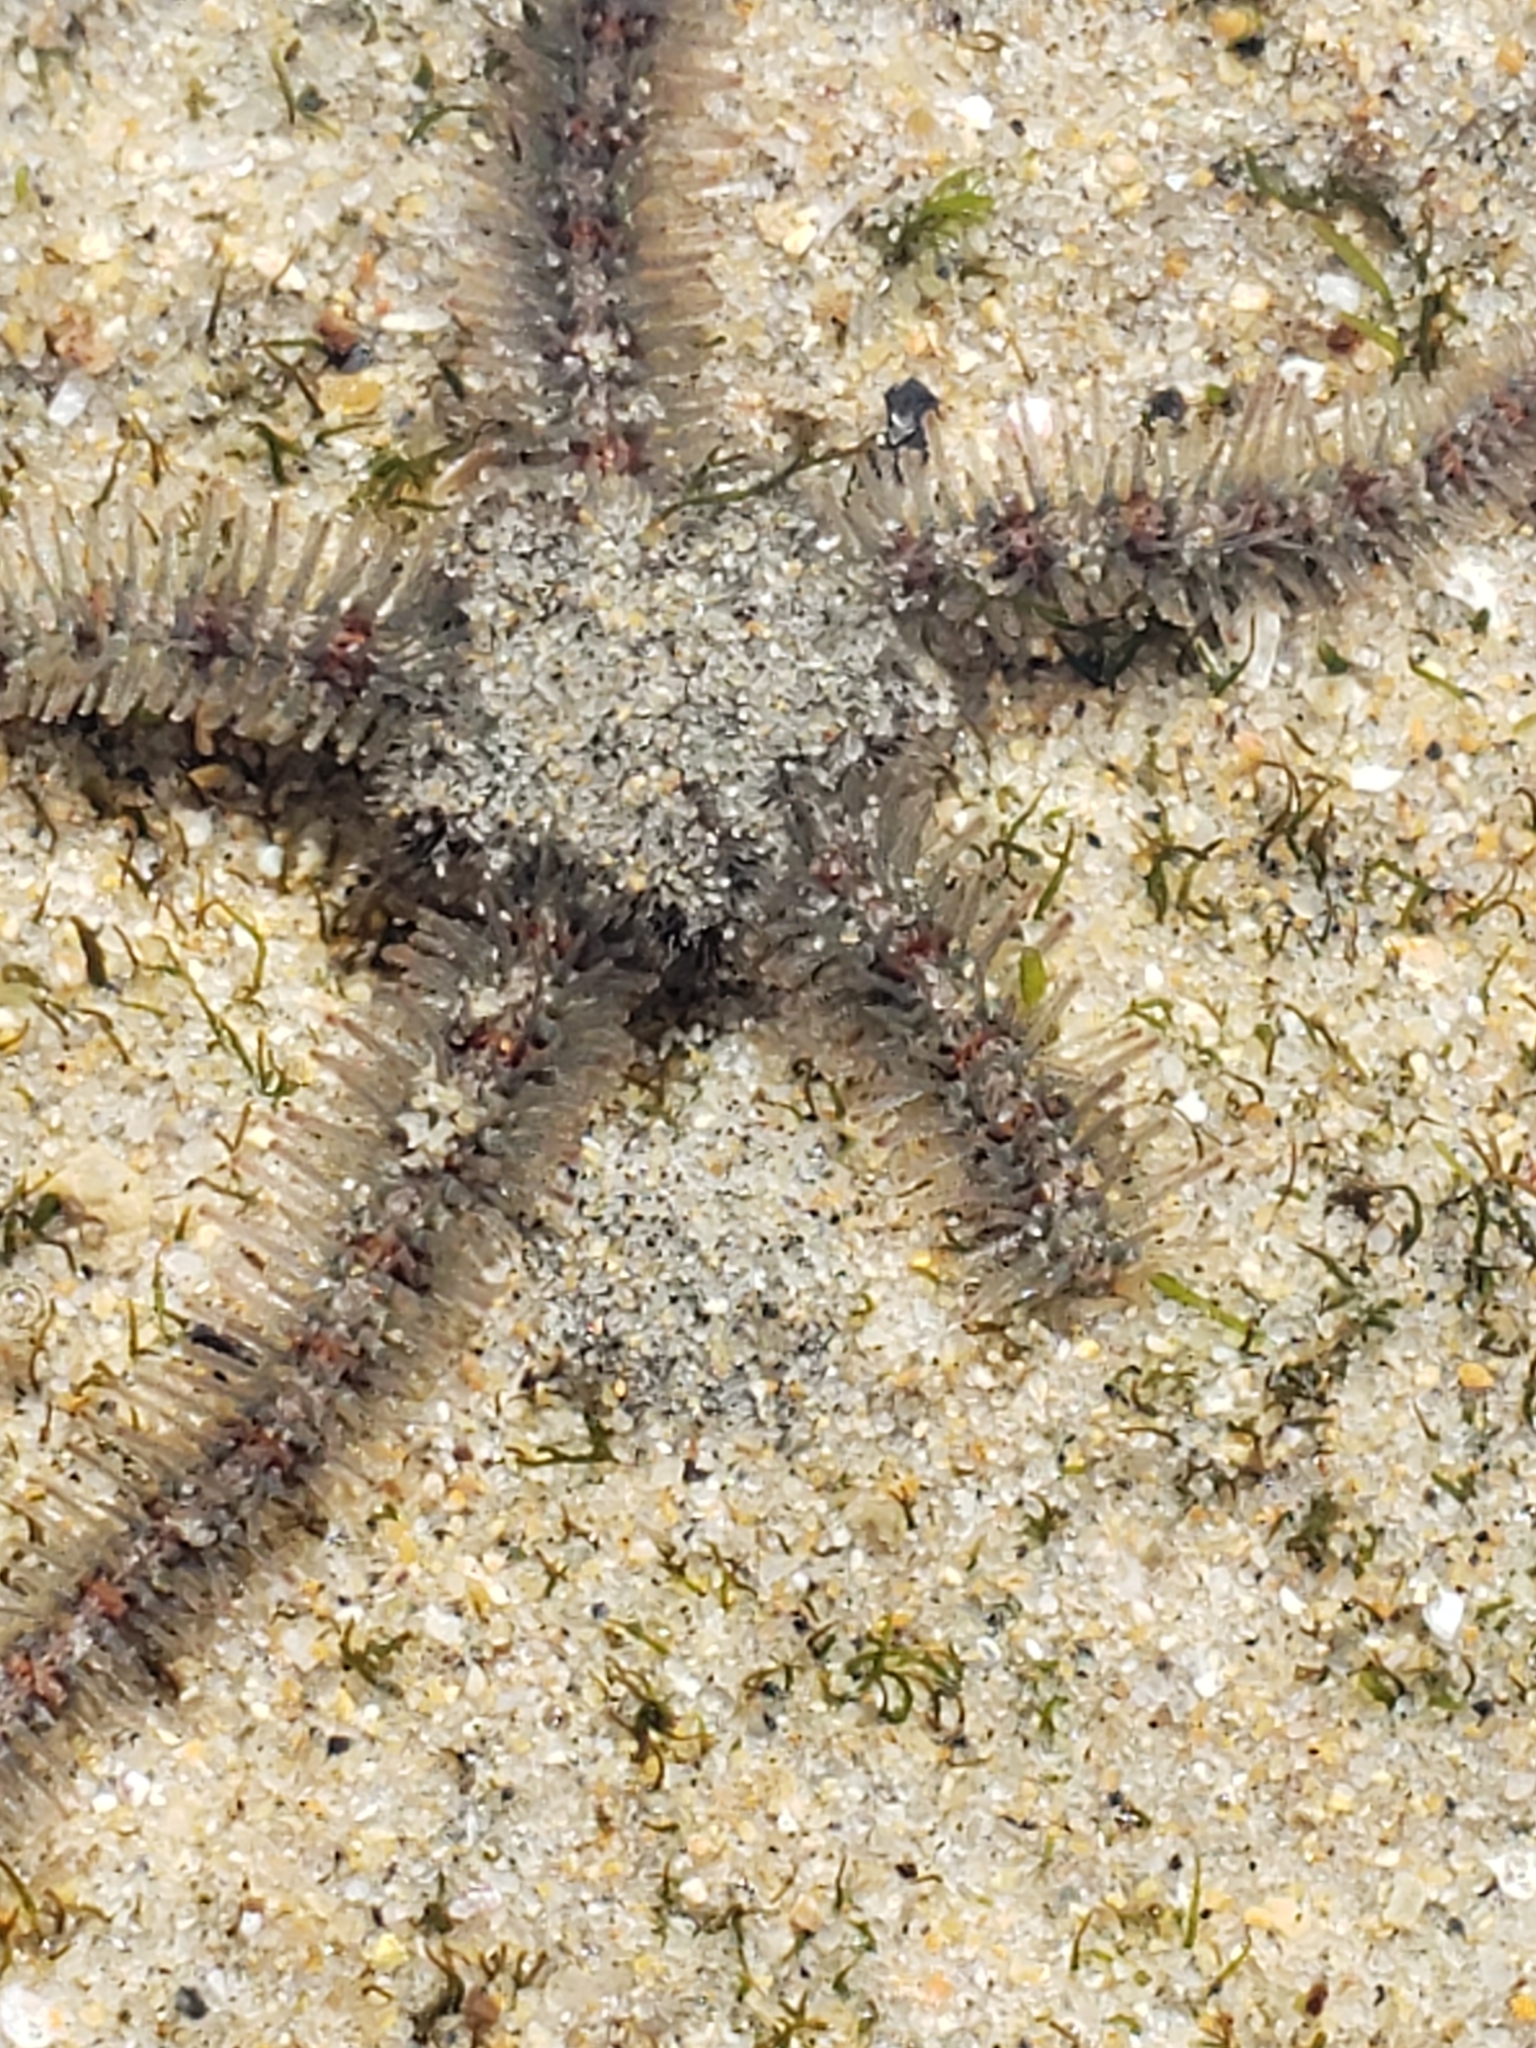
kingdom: Animalia
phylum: Echinodermata
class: Ophiuroidea
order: Amphilepidida
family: Ophiotrichidae
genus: Ophiothrix
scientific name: Ophiothrix spiculata
